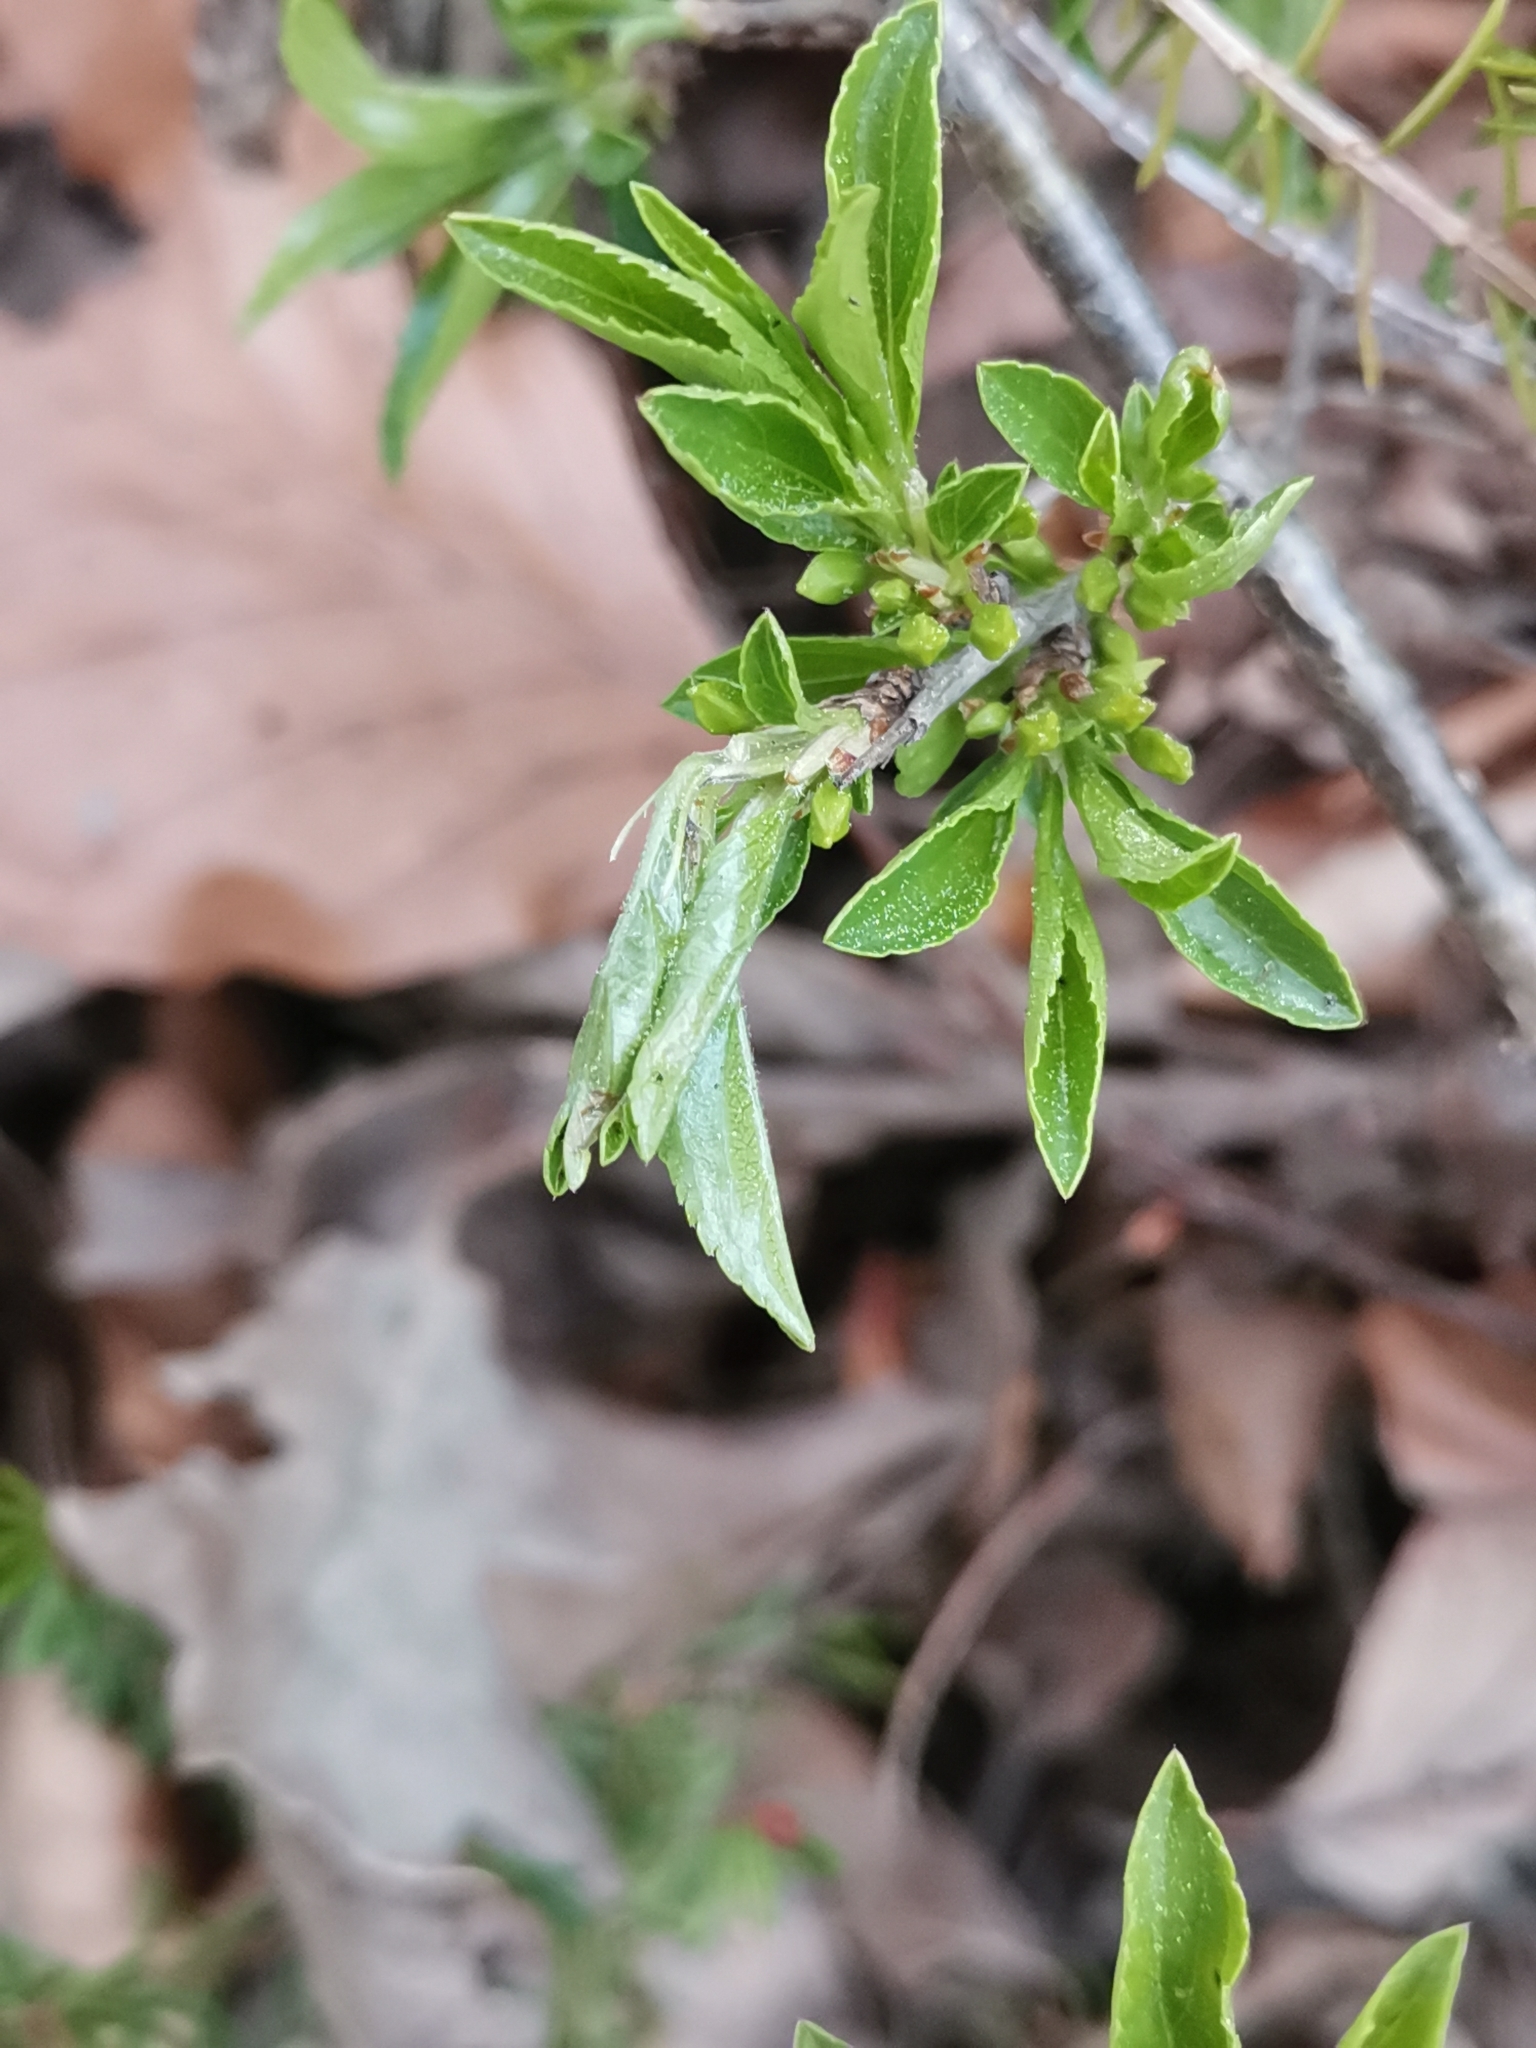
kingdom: Plantae
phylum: Tracheophyta
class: Magnoliopsida
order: Rosales
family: Rhamnaceae
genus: Rhamnus
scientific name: Rhamnus saxatilis
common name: Rock buckthorn
